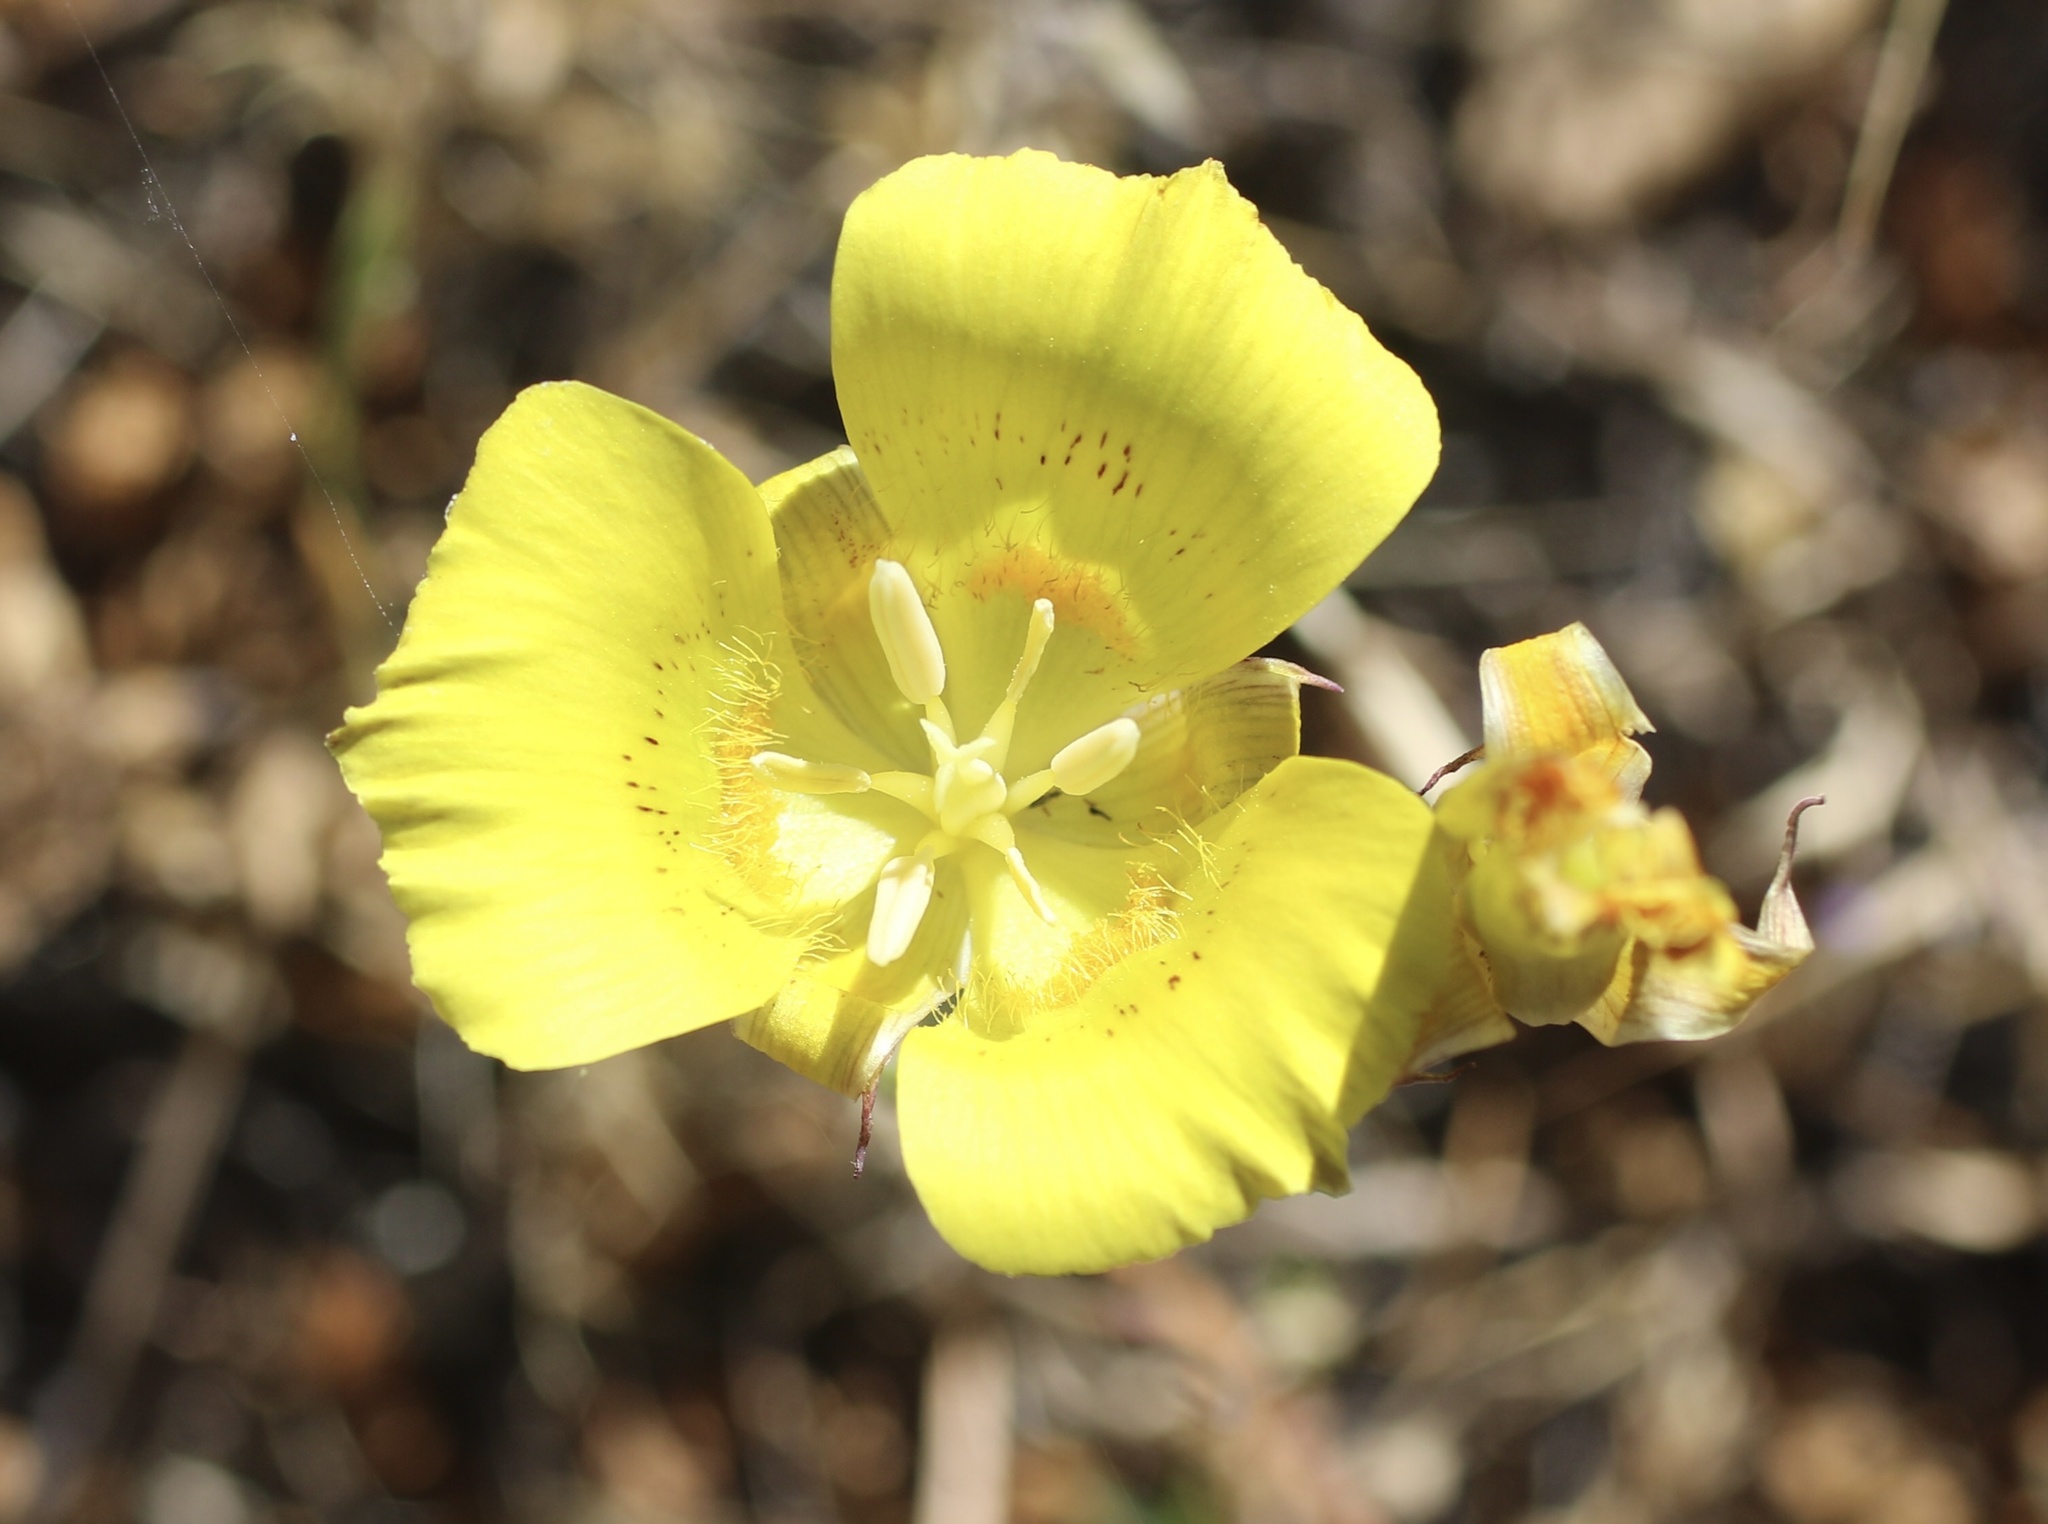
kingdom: Plantae
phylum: Tracheophyta
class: Liliopsida
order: Liliales
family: Liliaceae
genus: Calochortus
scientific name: Calochortus luteus
